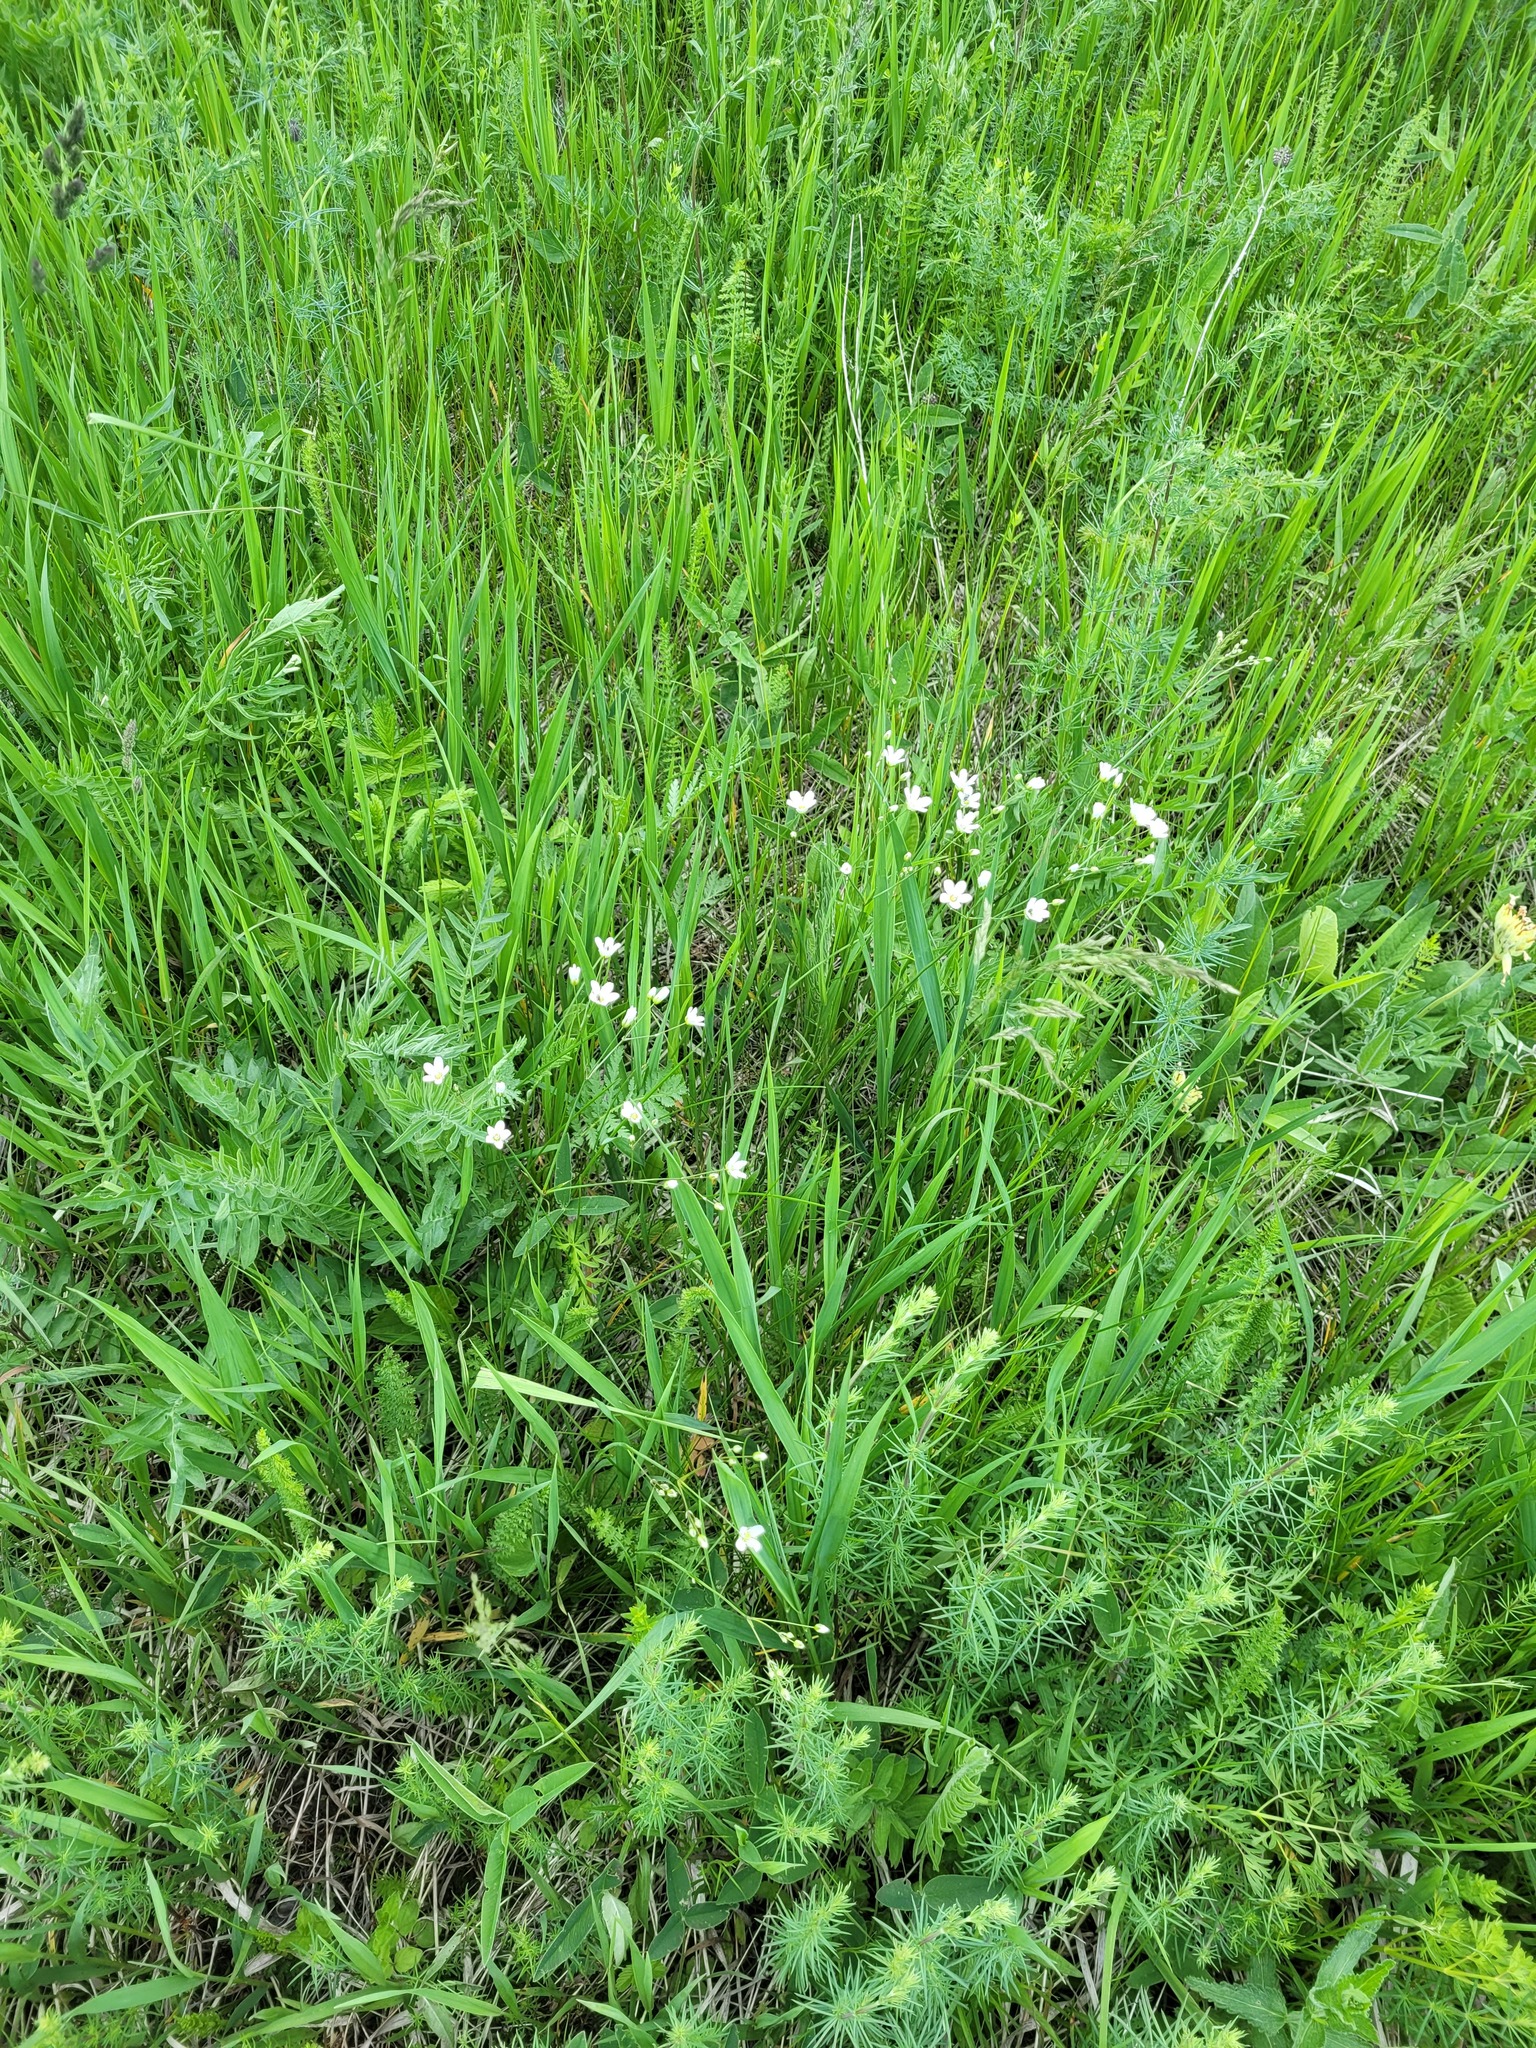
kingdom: Plantae
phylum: Tracheophyta
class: Magnoliopsida
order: Caryophyllales
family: Caryophyllaceae
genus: Eremogone
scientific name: Eremogone saxatilis
